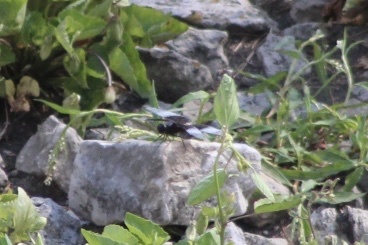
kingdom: Animalia
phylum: Arthropoda
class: Insecta
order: Odonata
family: Libellulidae
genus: Libellula
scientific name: Libellula luctuosa
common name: Widow skimmer
